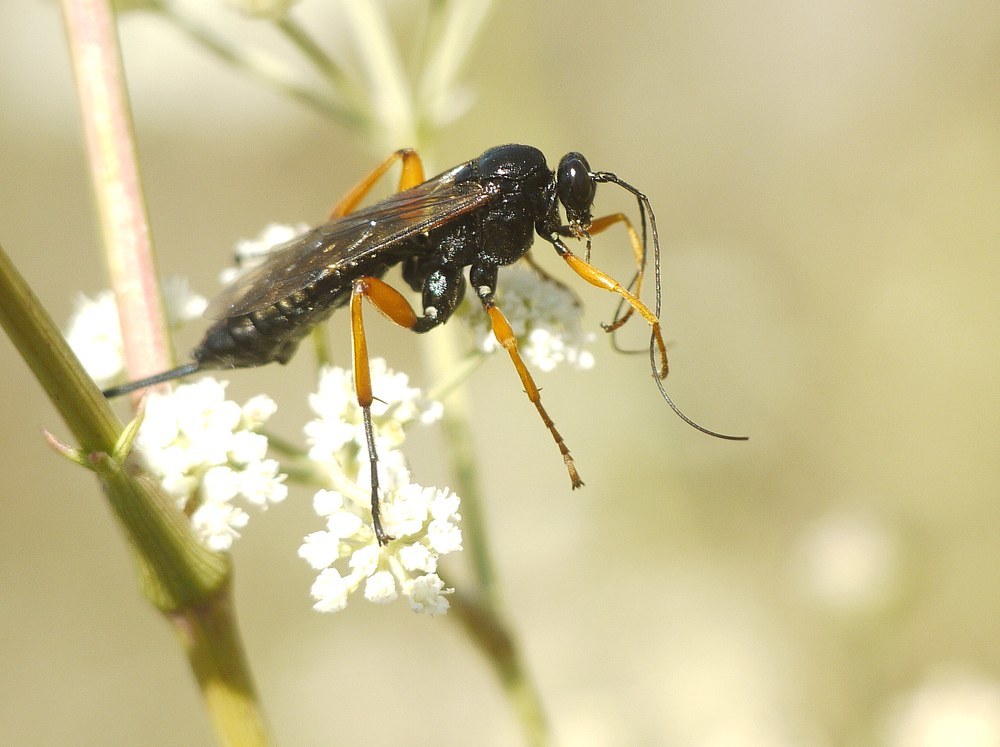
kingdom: Animalia
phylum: Arthropoda
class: Insecta
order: Hymenoptera
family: Ichneumonidae
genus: Pimpla
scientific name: Pimpla rufipes
